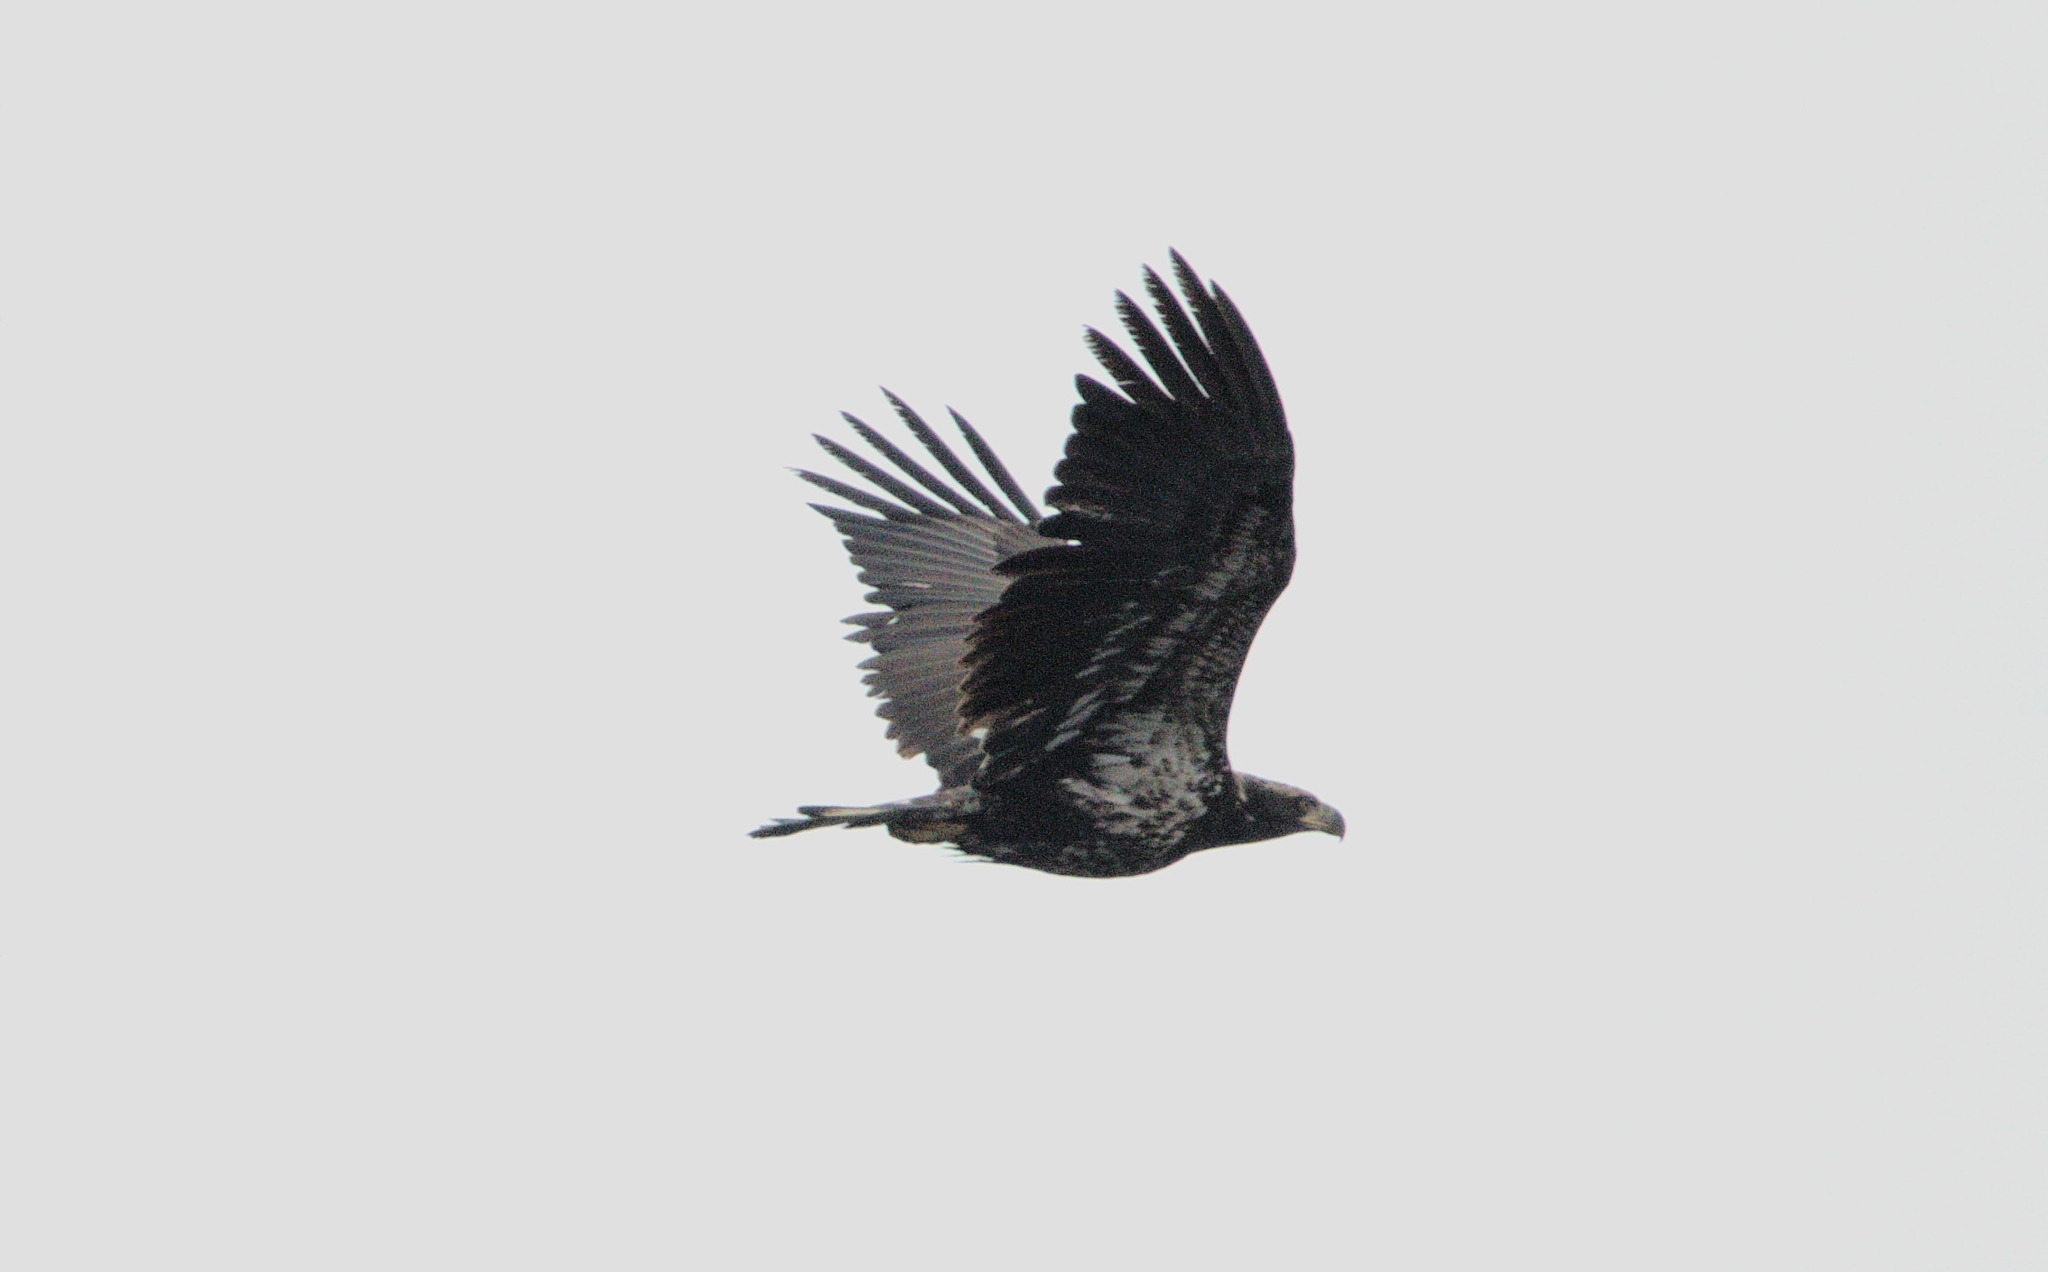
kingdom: Animalia
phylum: Chordata
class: Aves
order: Accipitriformes
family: Accipitridae
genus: Haliaeetus
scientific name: Haliaeetus leucocephalus
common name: Bald eagle
